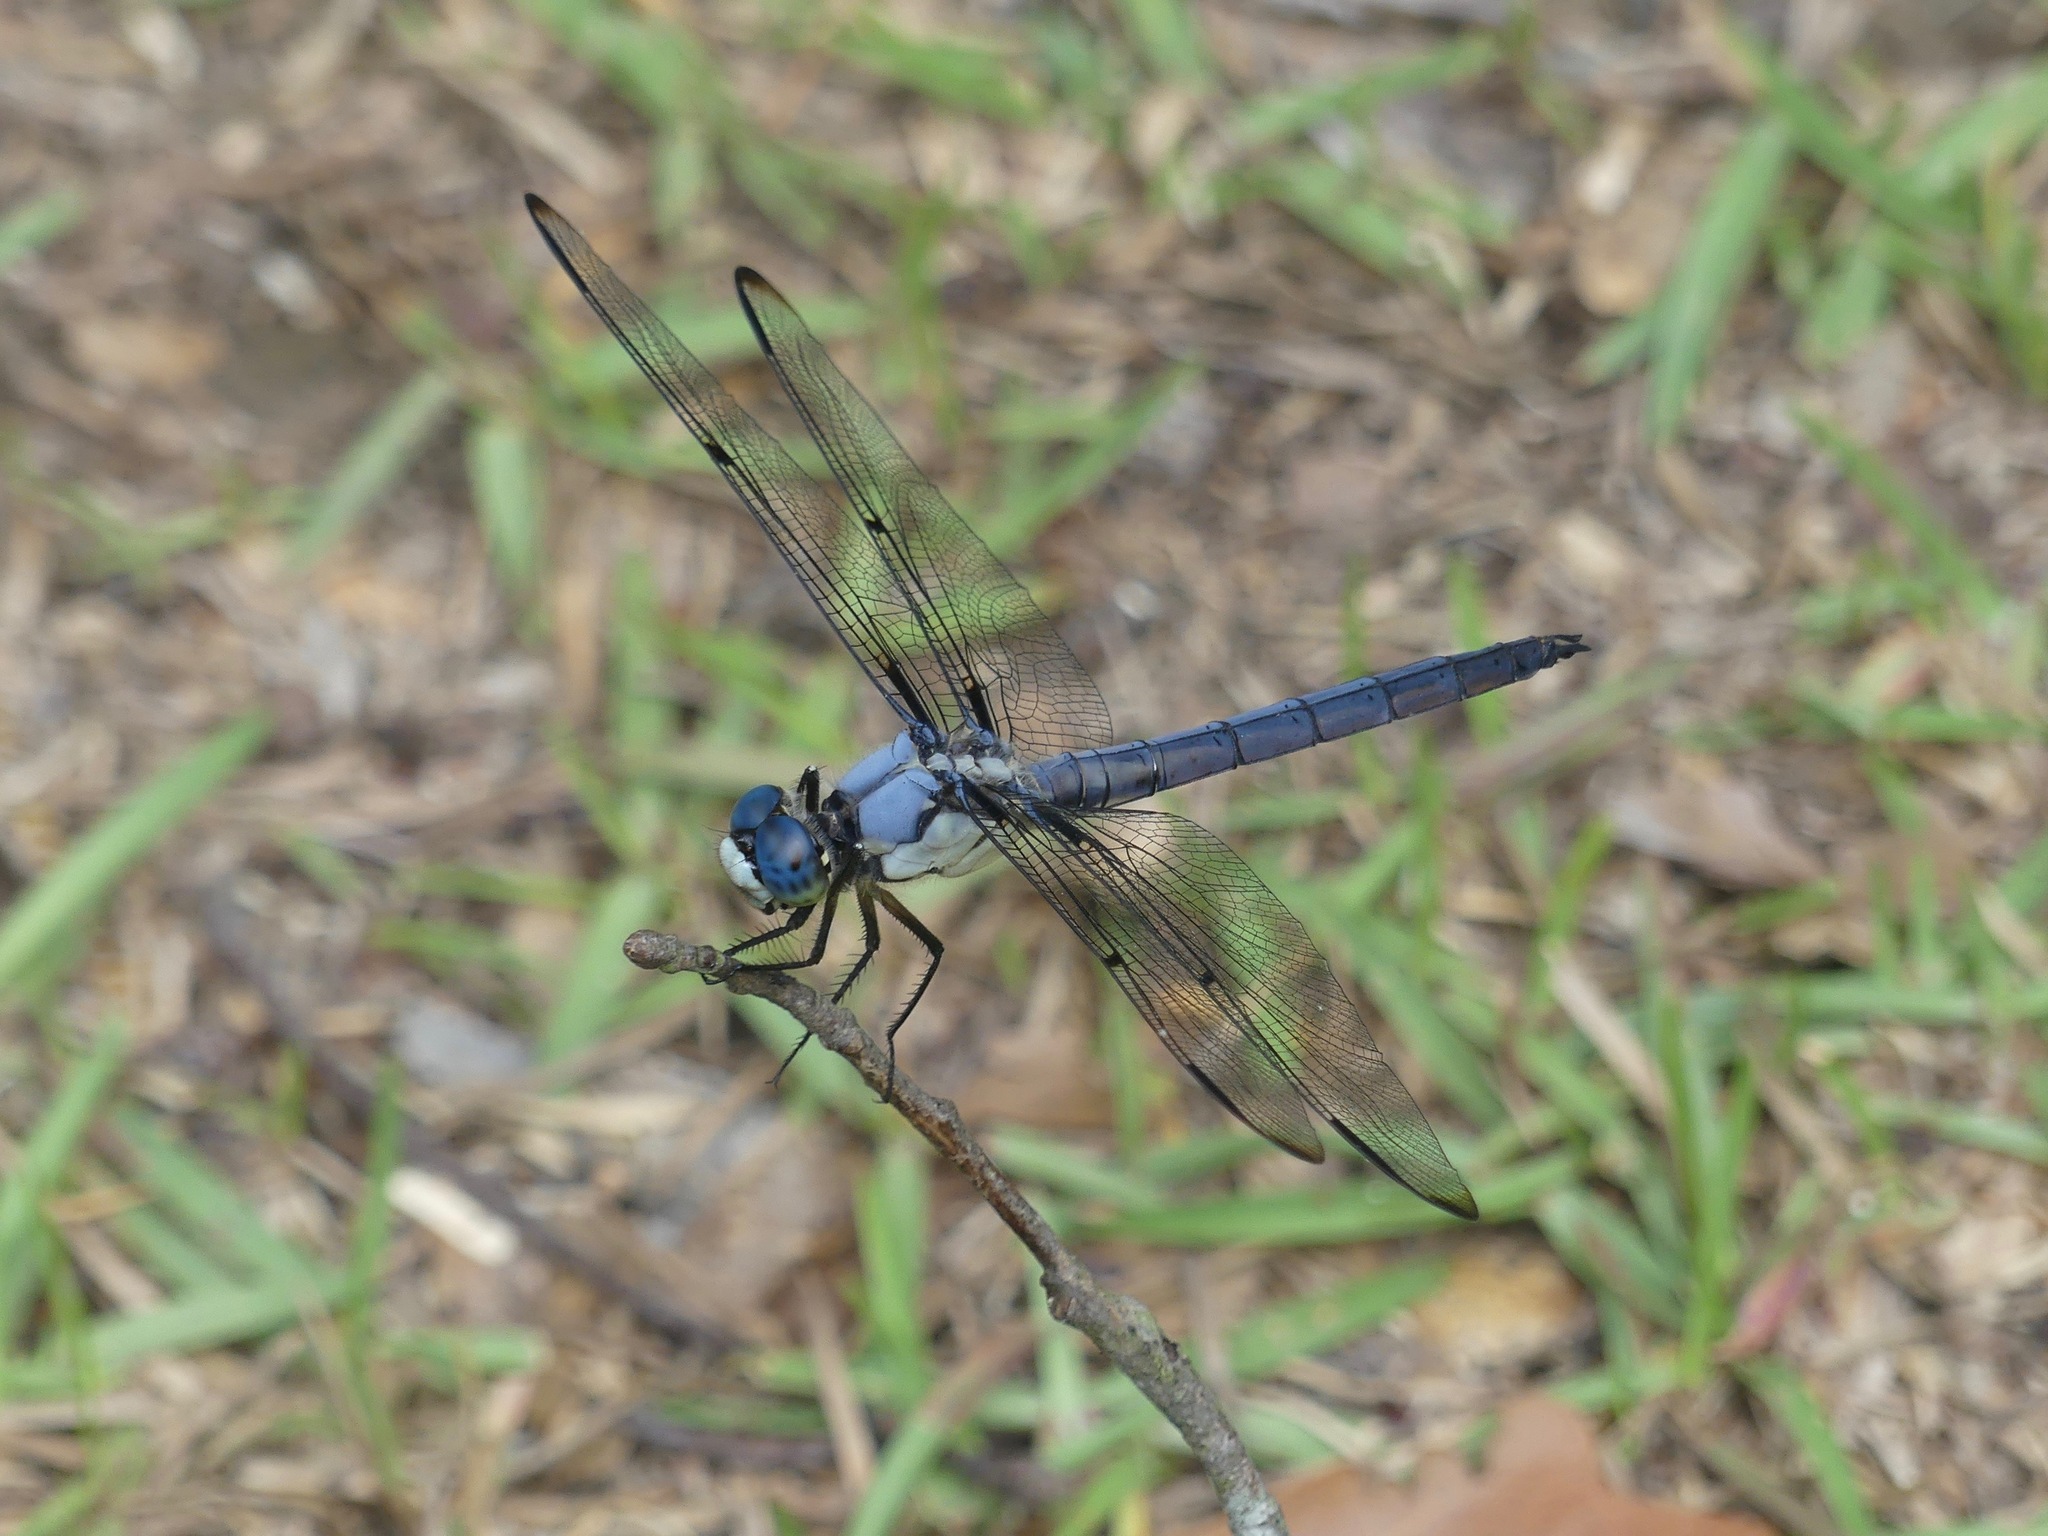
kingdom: Animalia
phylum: Arthropoda
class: Insecta
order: Odonata
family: Libellulidae
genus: Libellula
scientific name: Libellula vibrans
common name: Great blue skimmer
